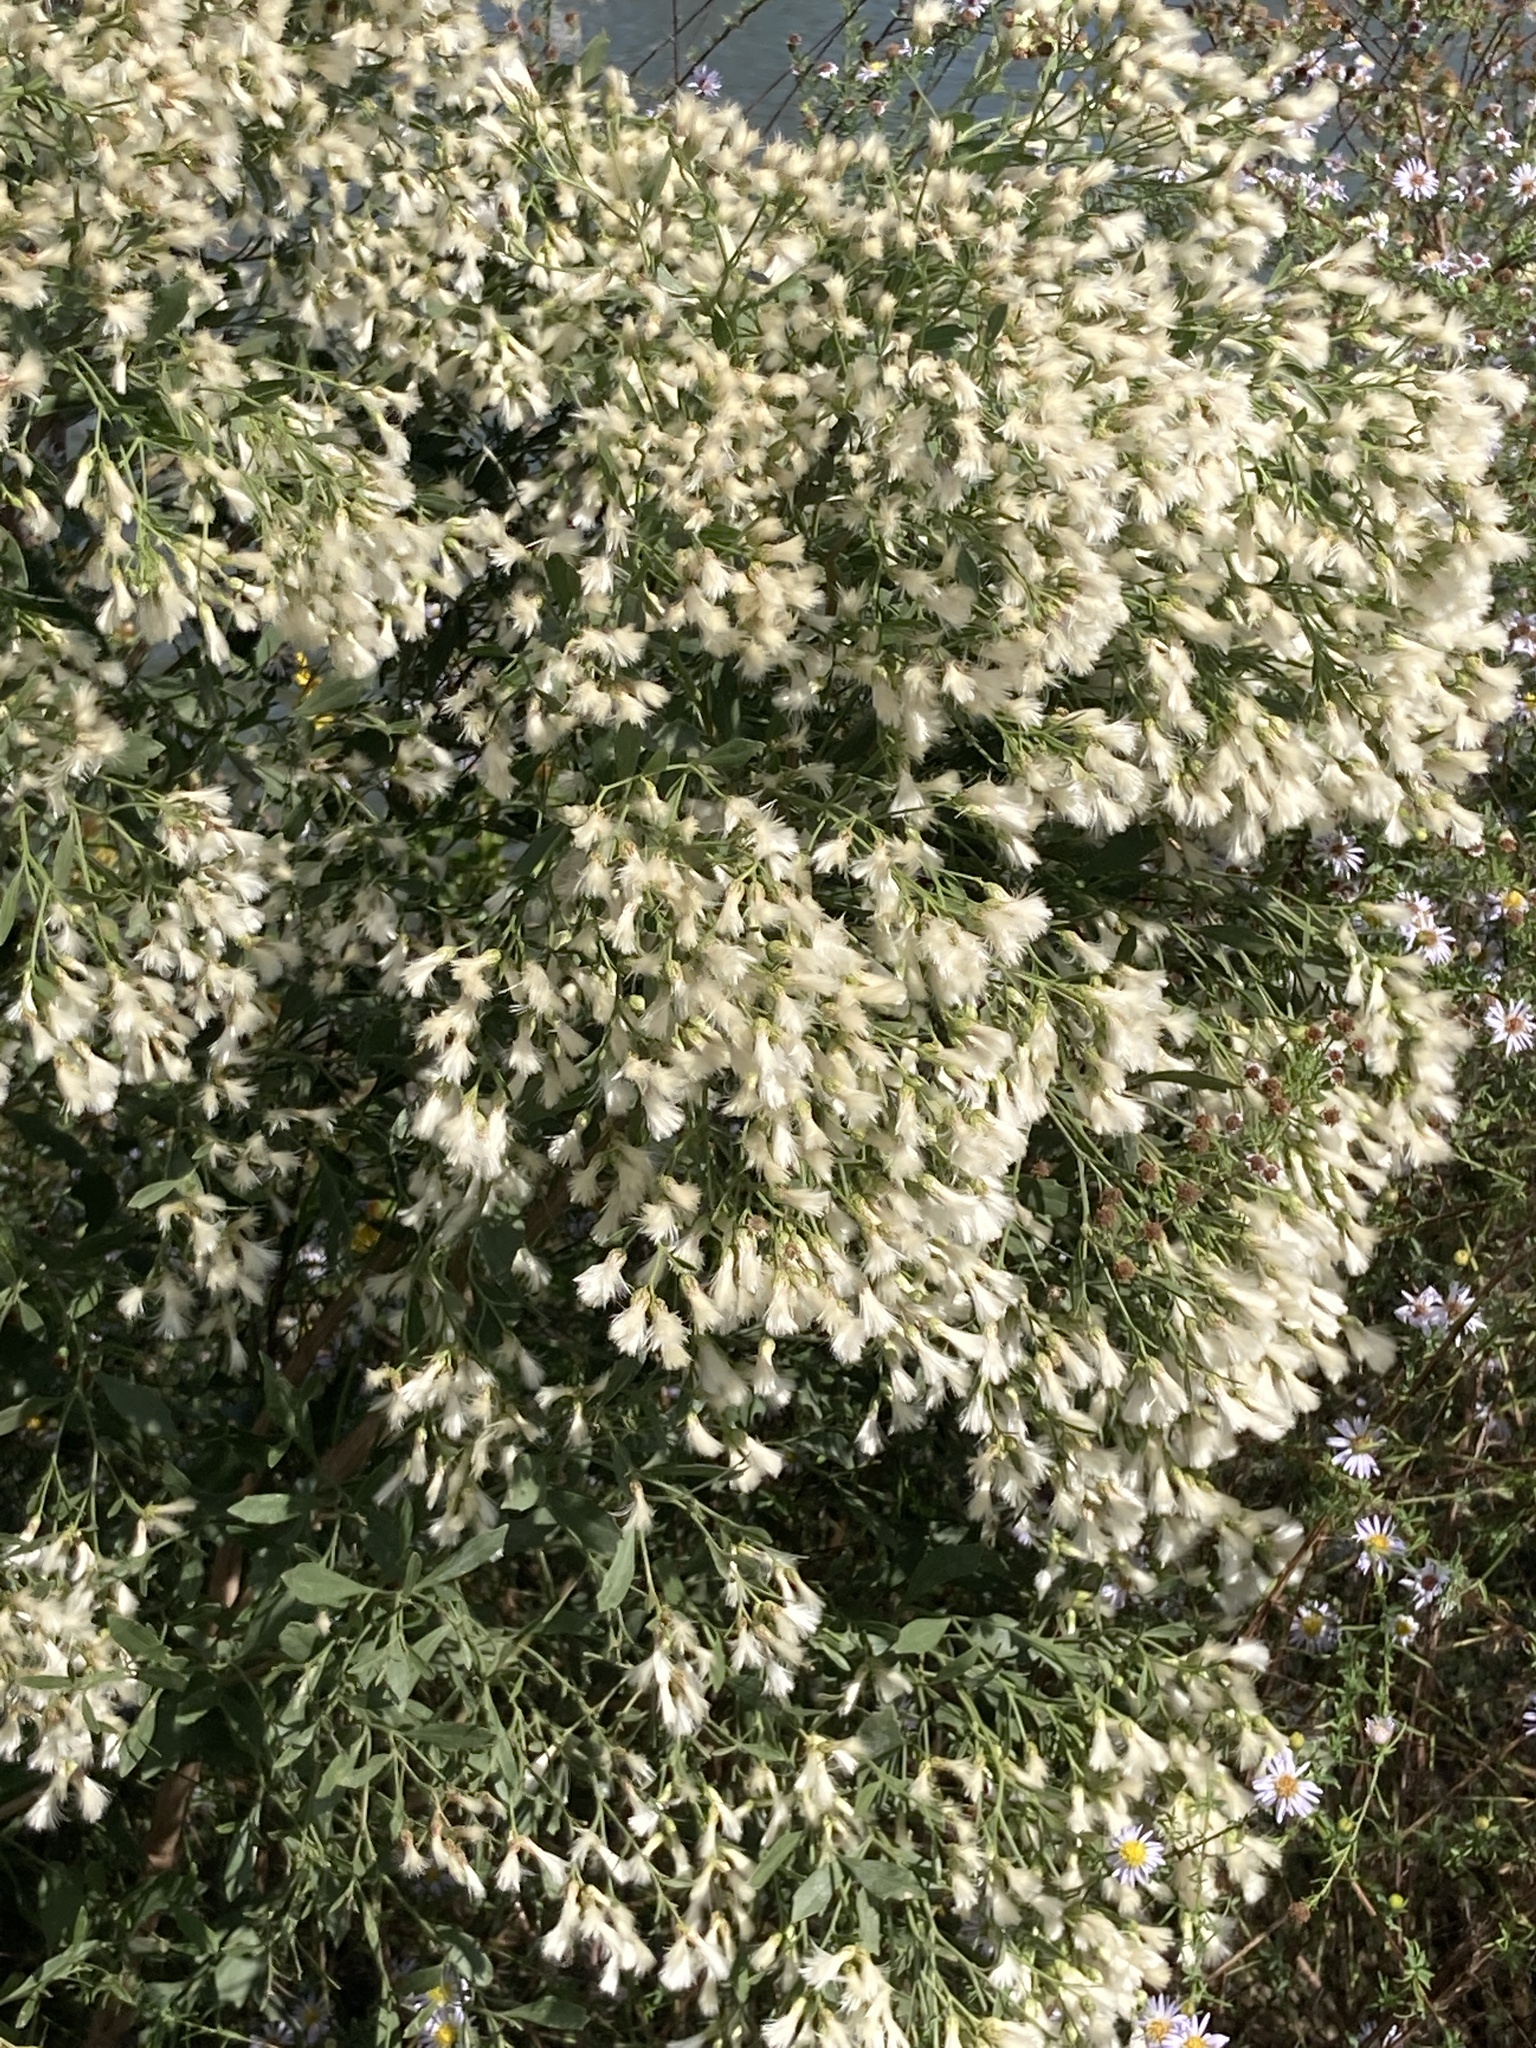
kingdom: Plantae
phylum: Tracheophyta
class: Magnoliopsida
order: Asterales
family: Asteraceae
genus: Baccharis
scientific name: Baccharis halimifolia
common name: Eastern baccharis
